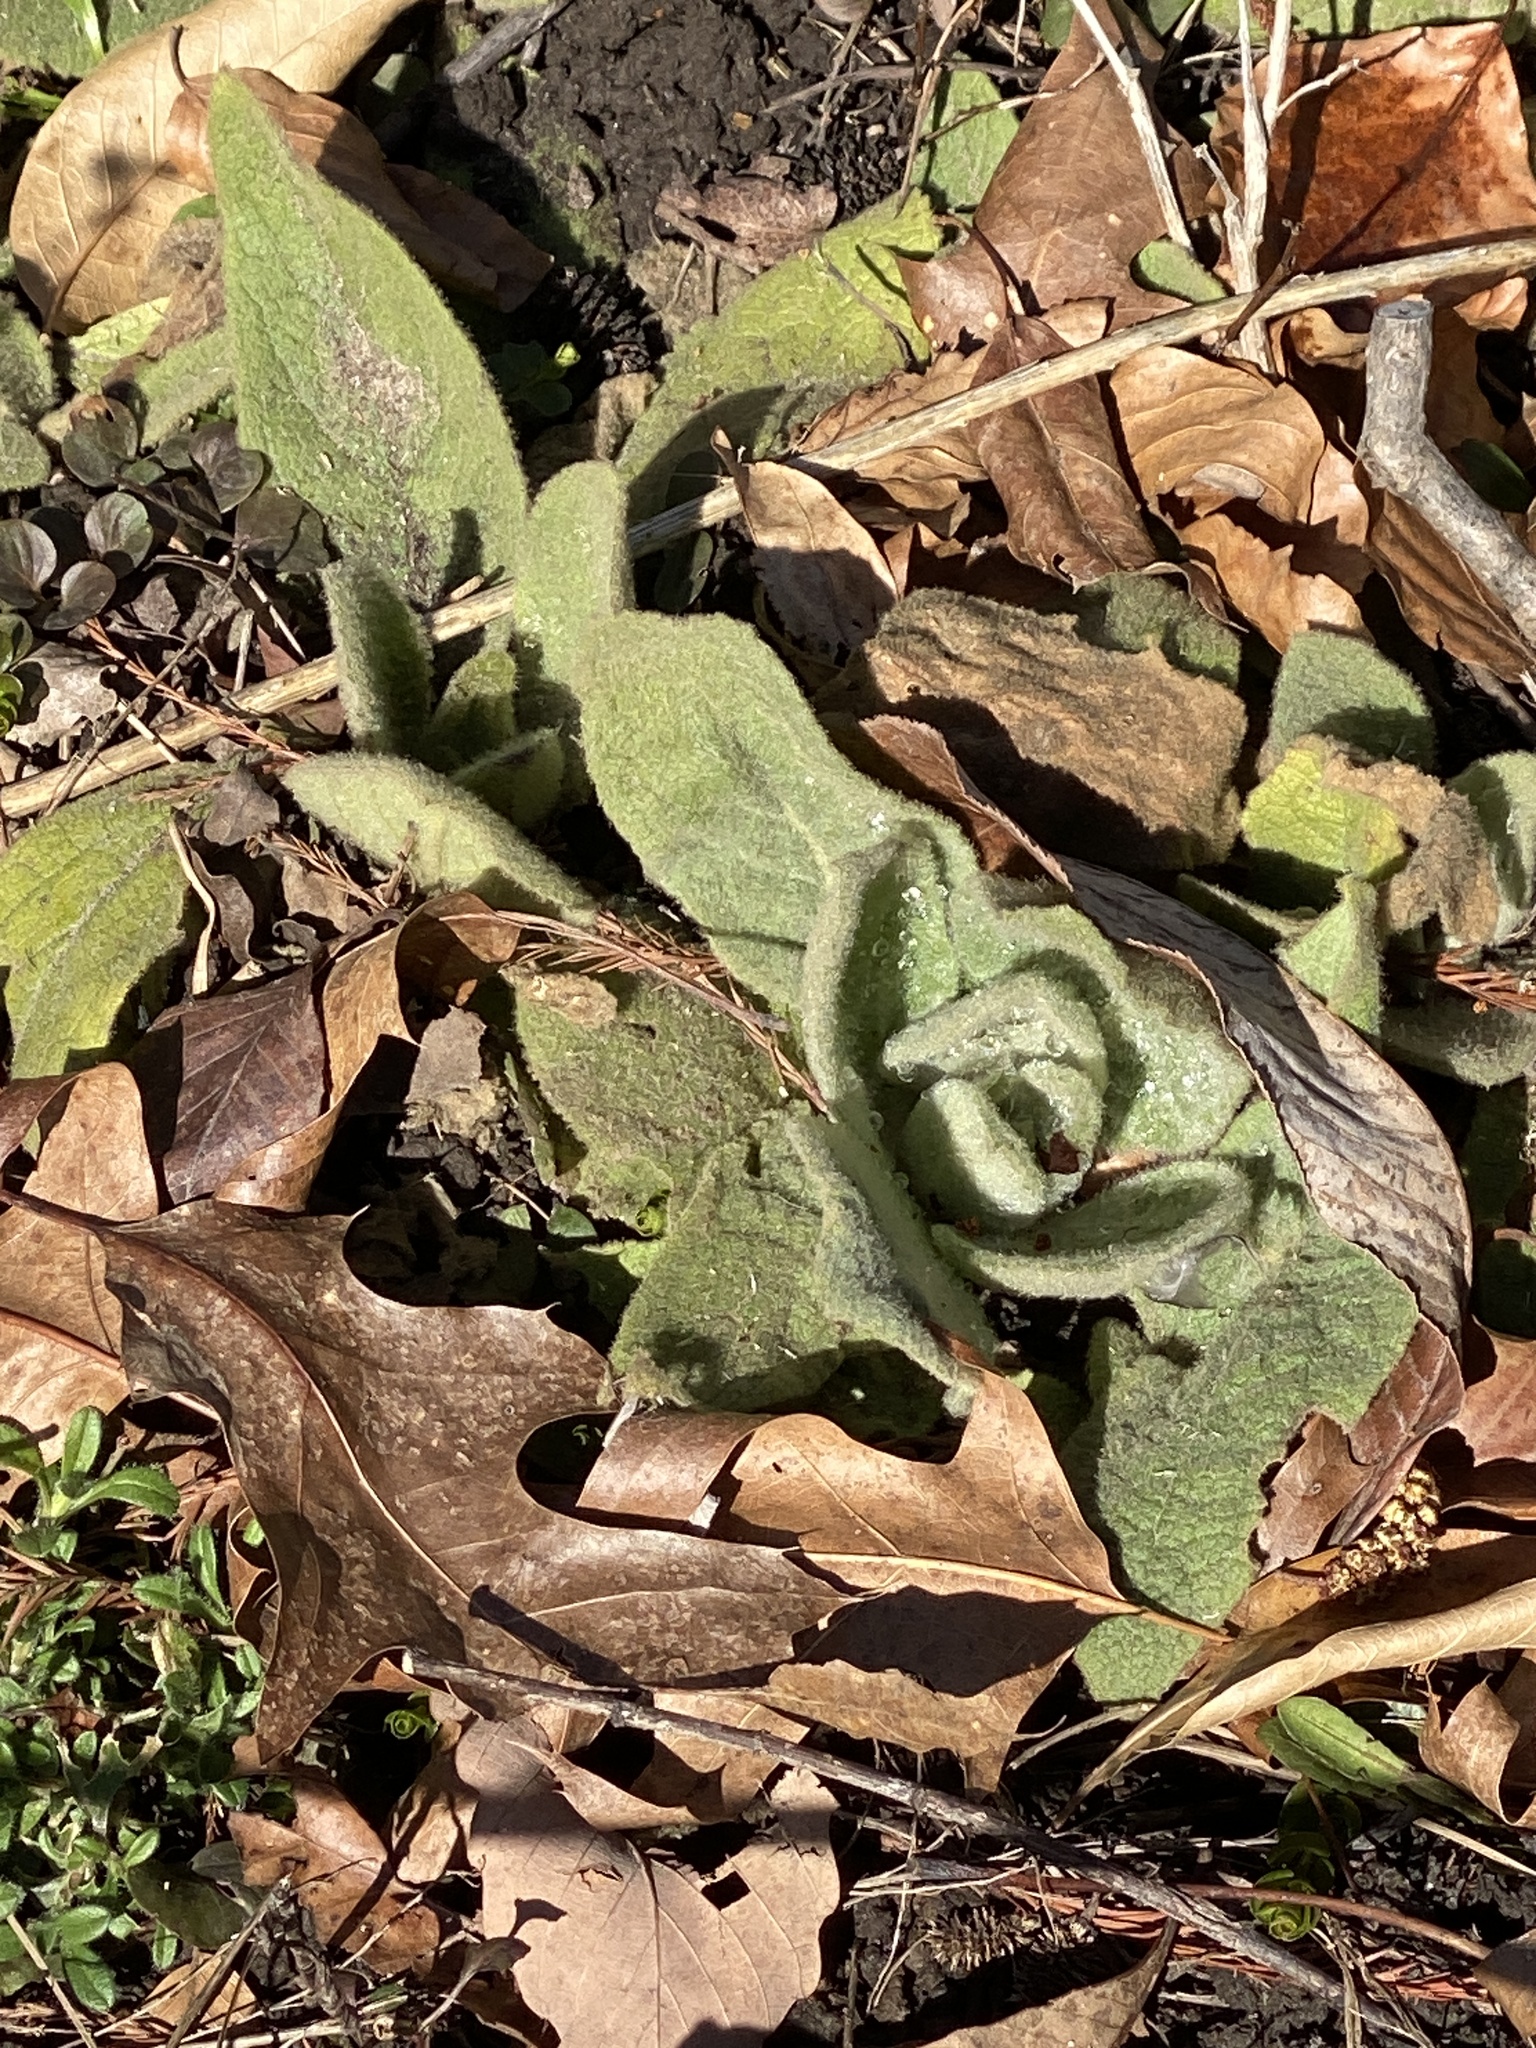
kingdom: Plantae
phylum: Tracheophyta
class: Magnoliopsida
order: Lamiales
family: Scrophulariaceae
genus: Verbascum
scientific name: Verbascum thapsus
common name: Common mullein
